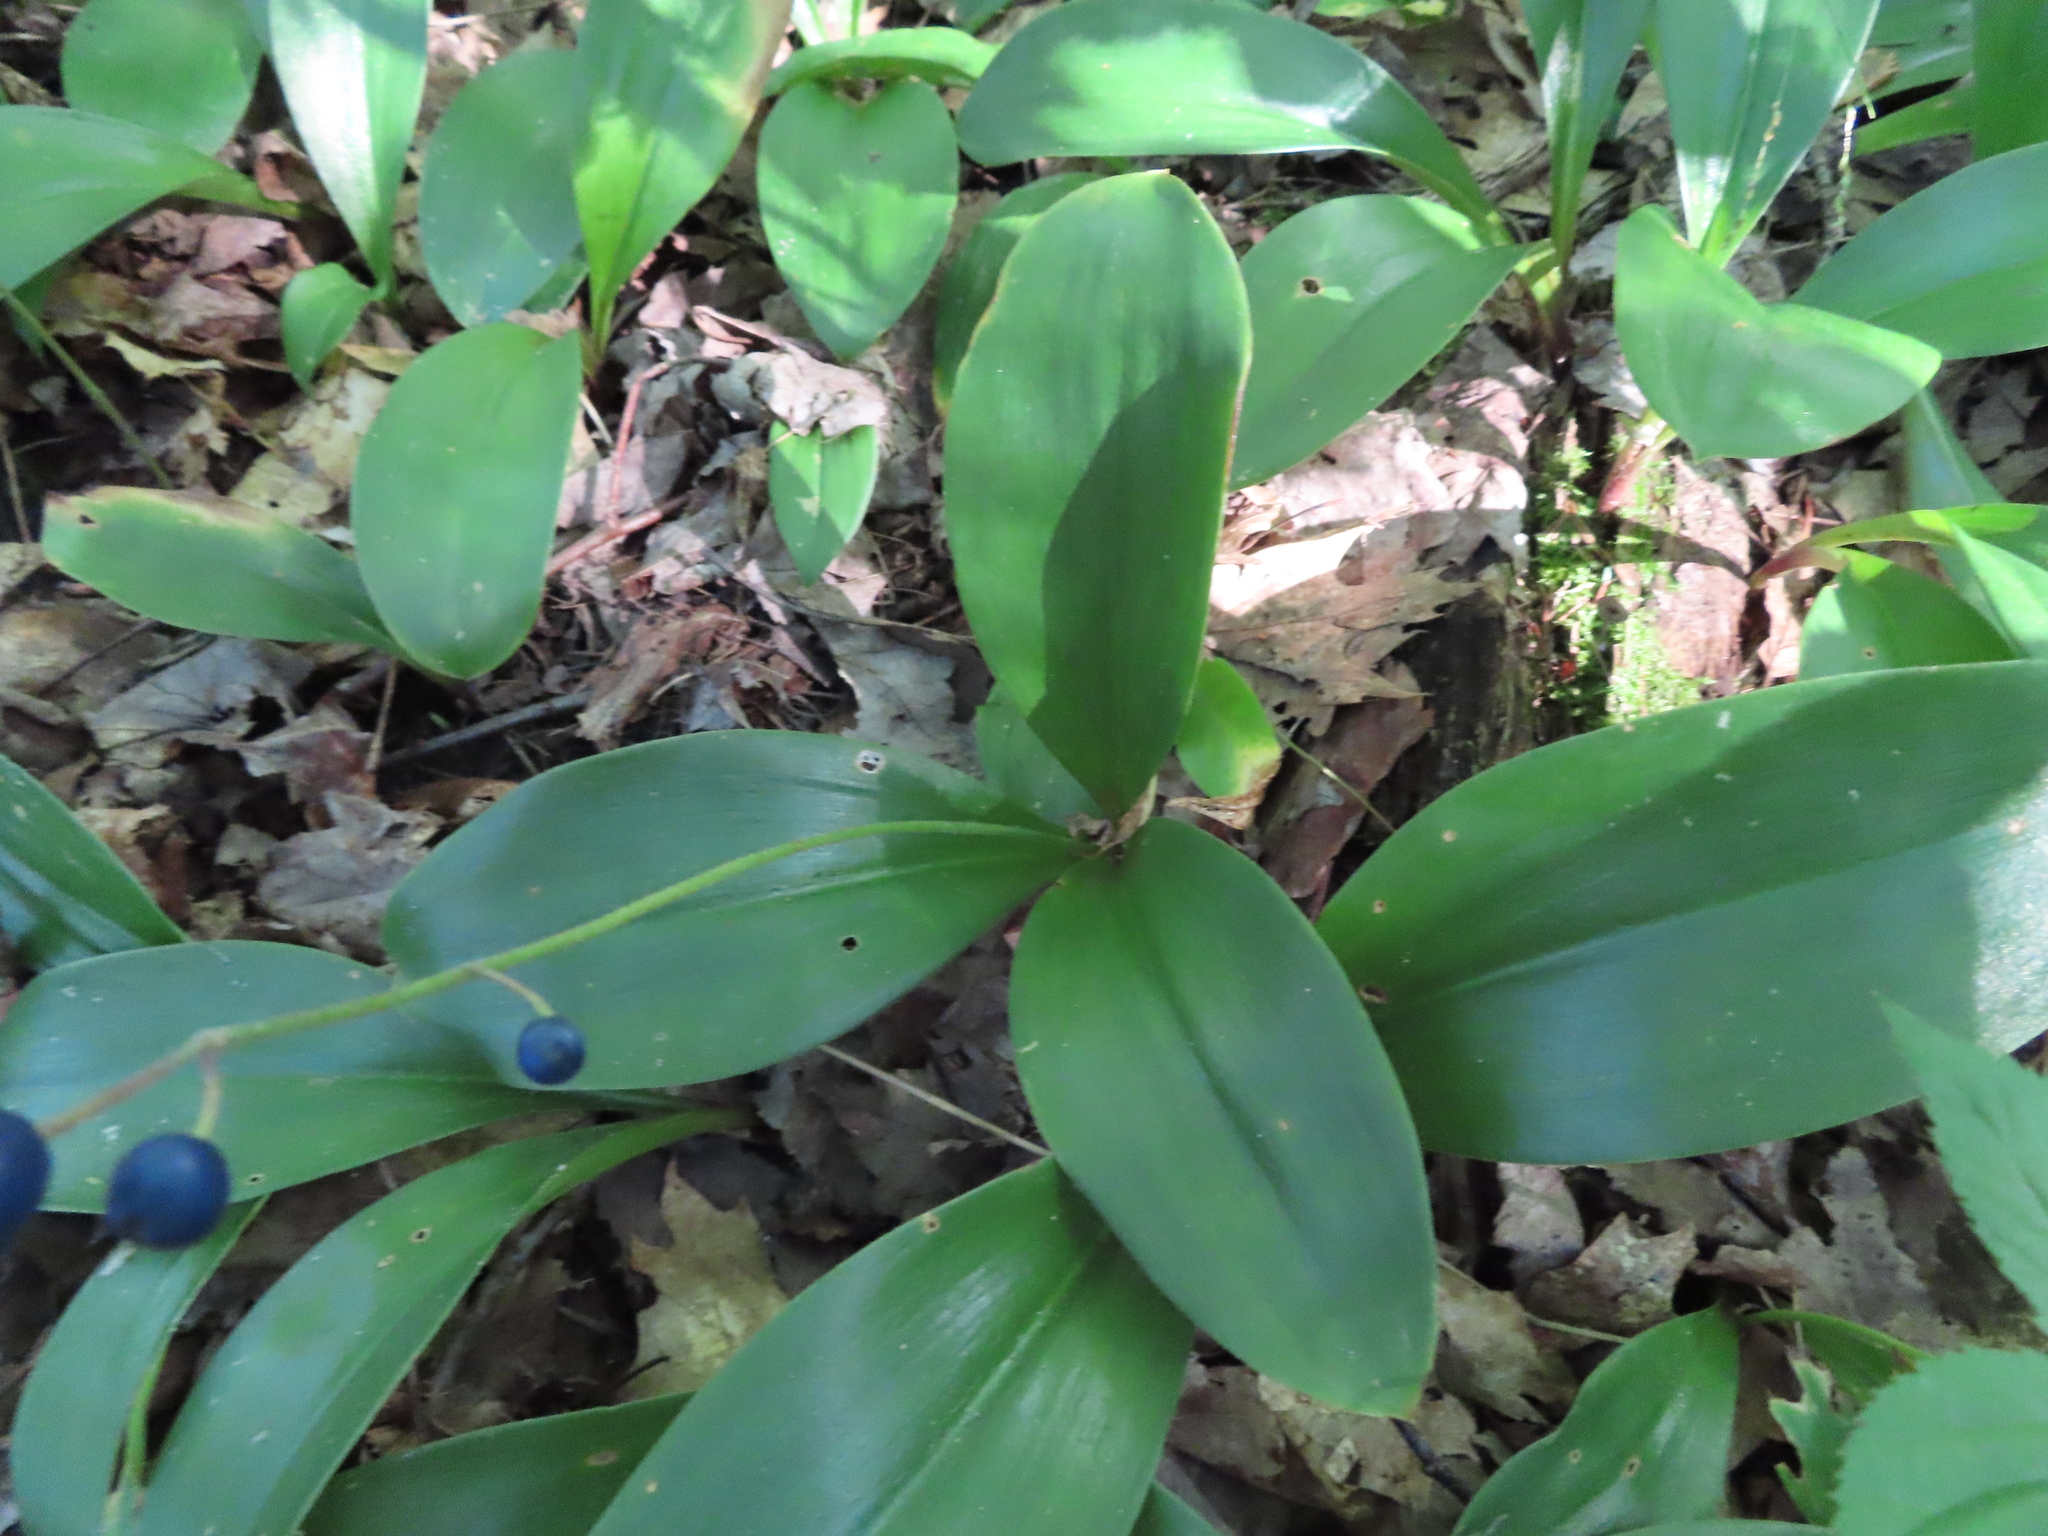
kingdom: Plantae
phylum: Tracheophyta
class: Liliopsida
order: Liliales
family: Liliaceae
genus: Clintonia
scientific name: Clintonia borealis
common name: Yellow clintonia
